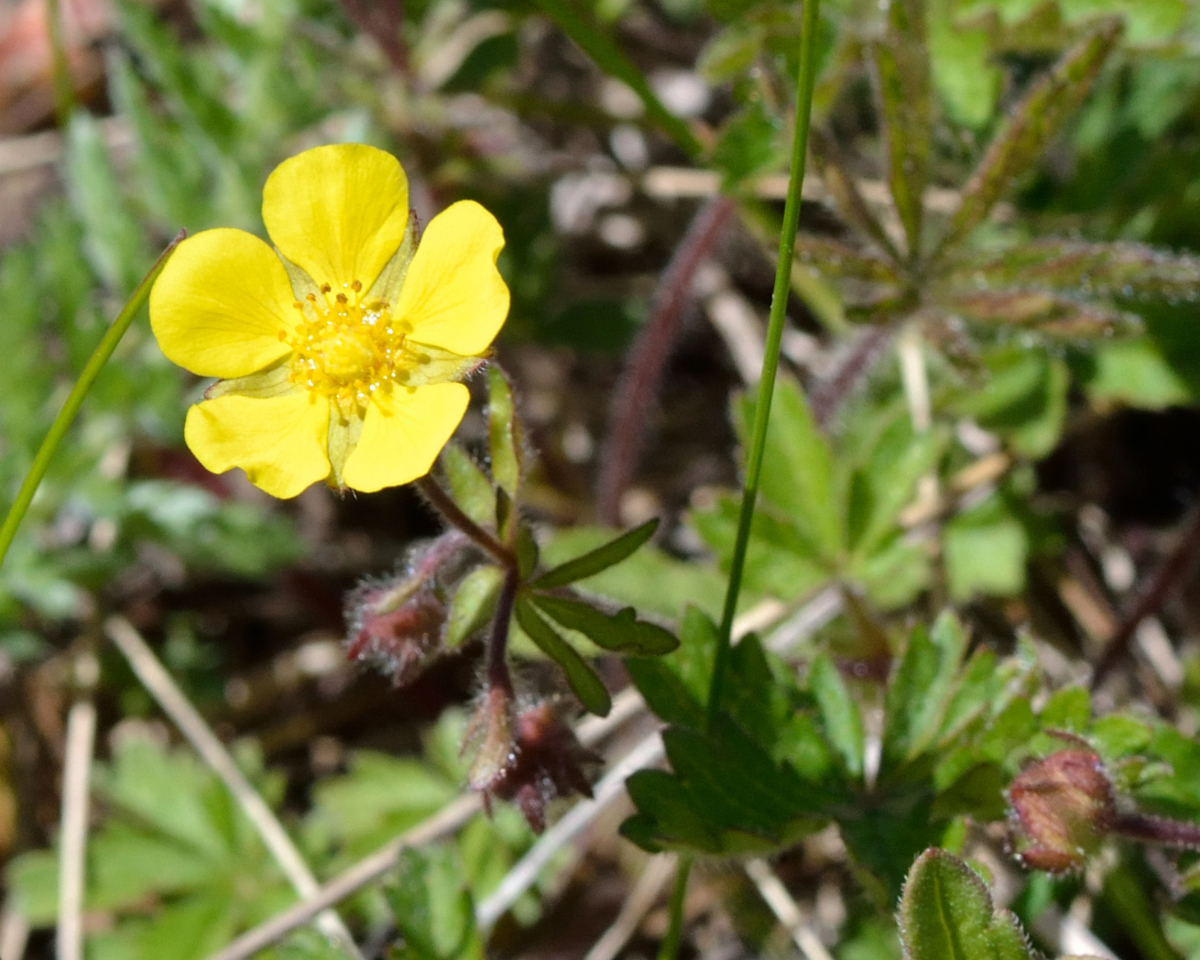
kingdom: Plantae
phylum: Tracheophyta
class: Magnoliopsida
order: Rosales
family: Rosaceae
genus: Potentilla
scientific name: Potentilla heptaphylla
